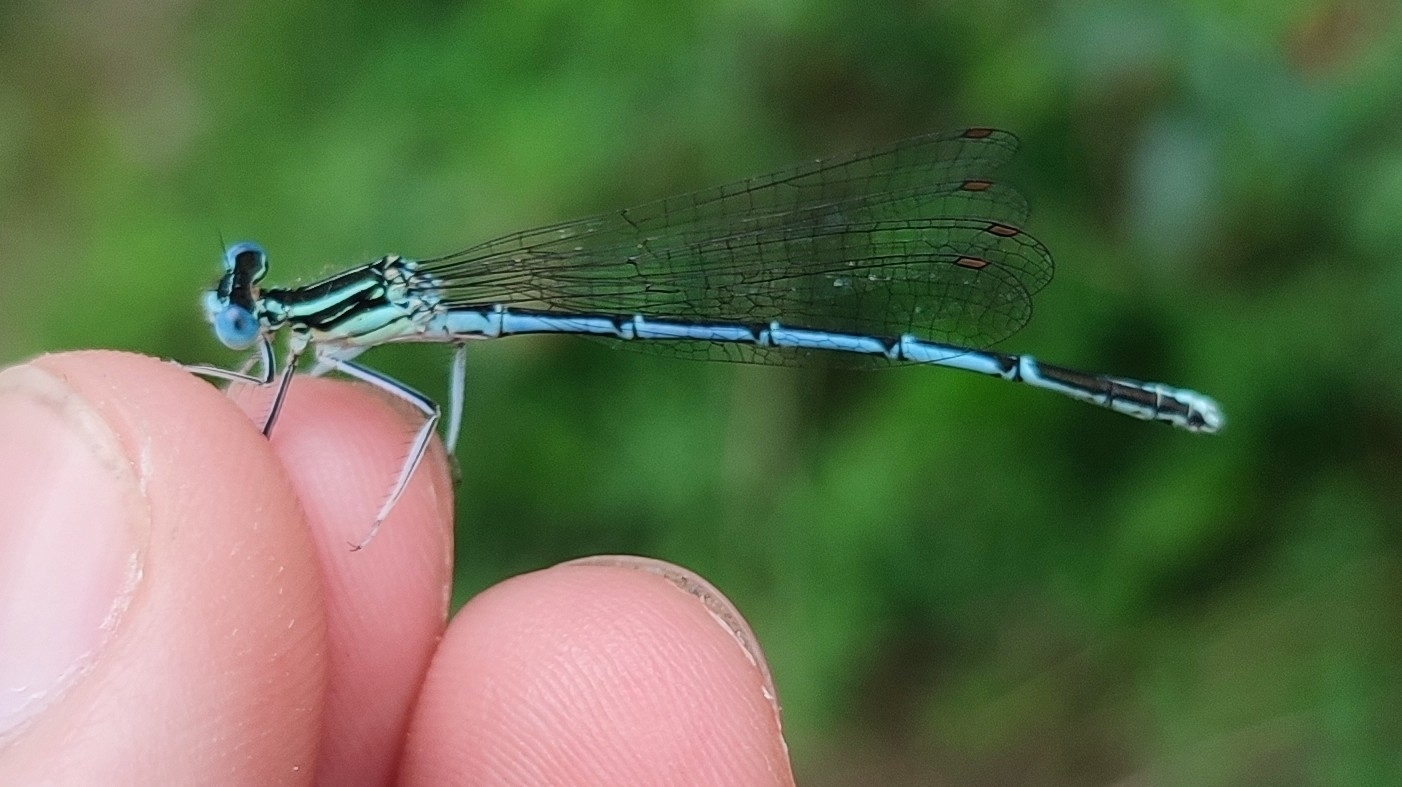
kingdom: Animalia
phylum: Arthropoda
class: Insecta
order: Odonata
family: Platycnemididae
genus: Platycnemis
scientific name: Platycnemis pennipes
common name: White-legged damselfly
